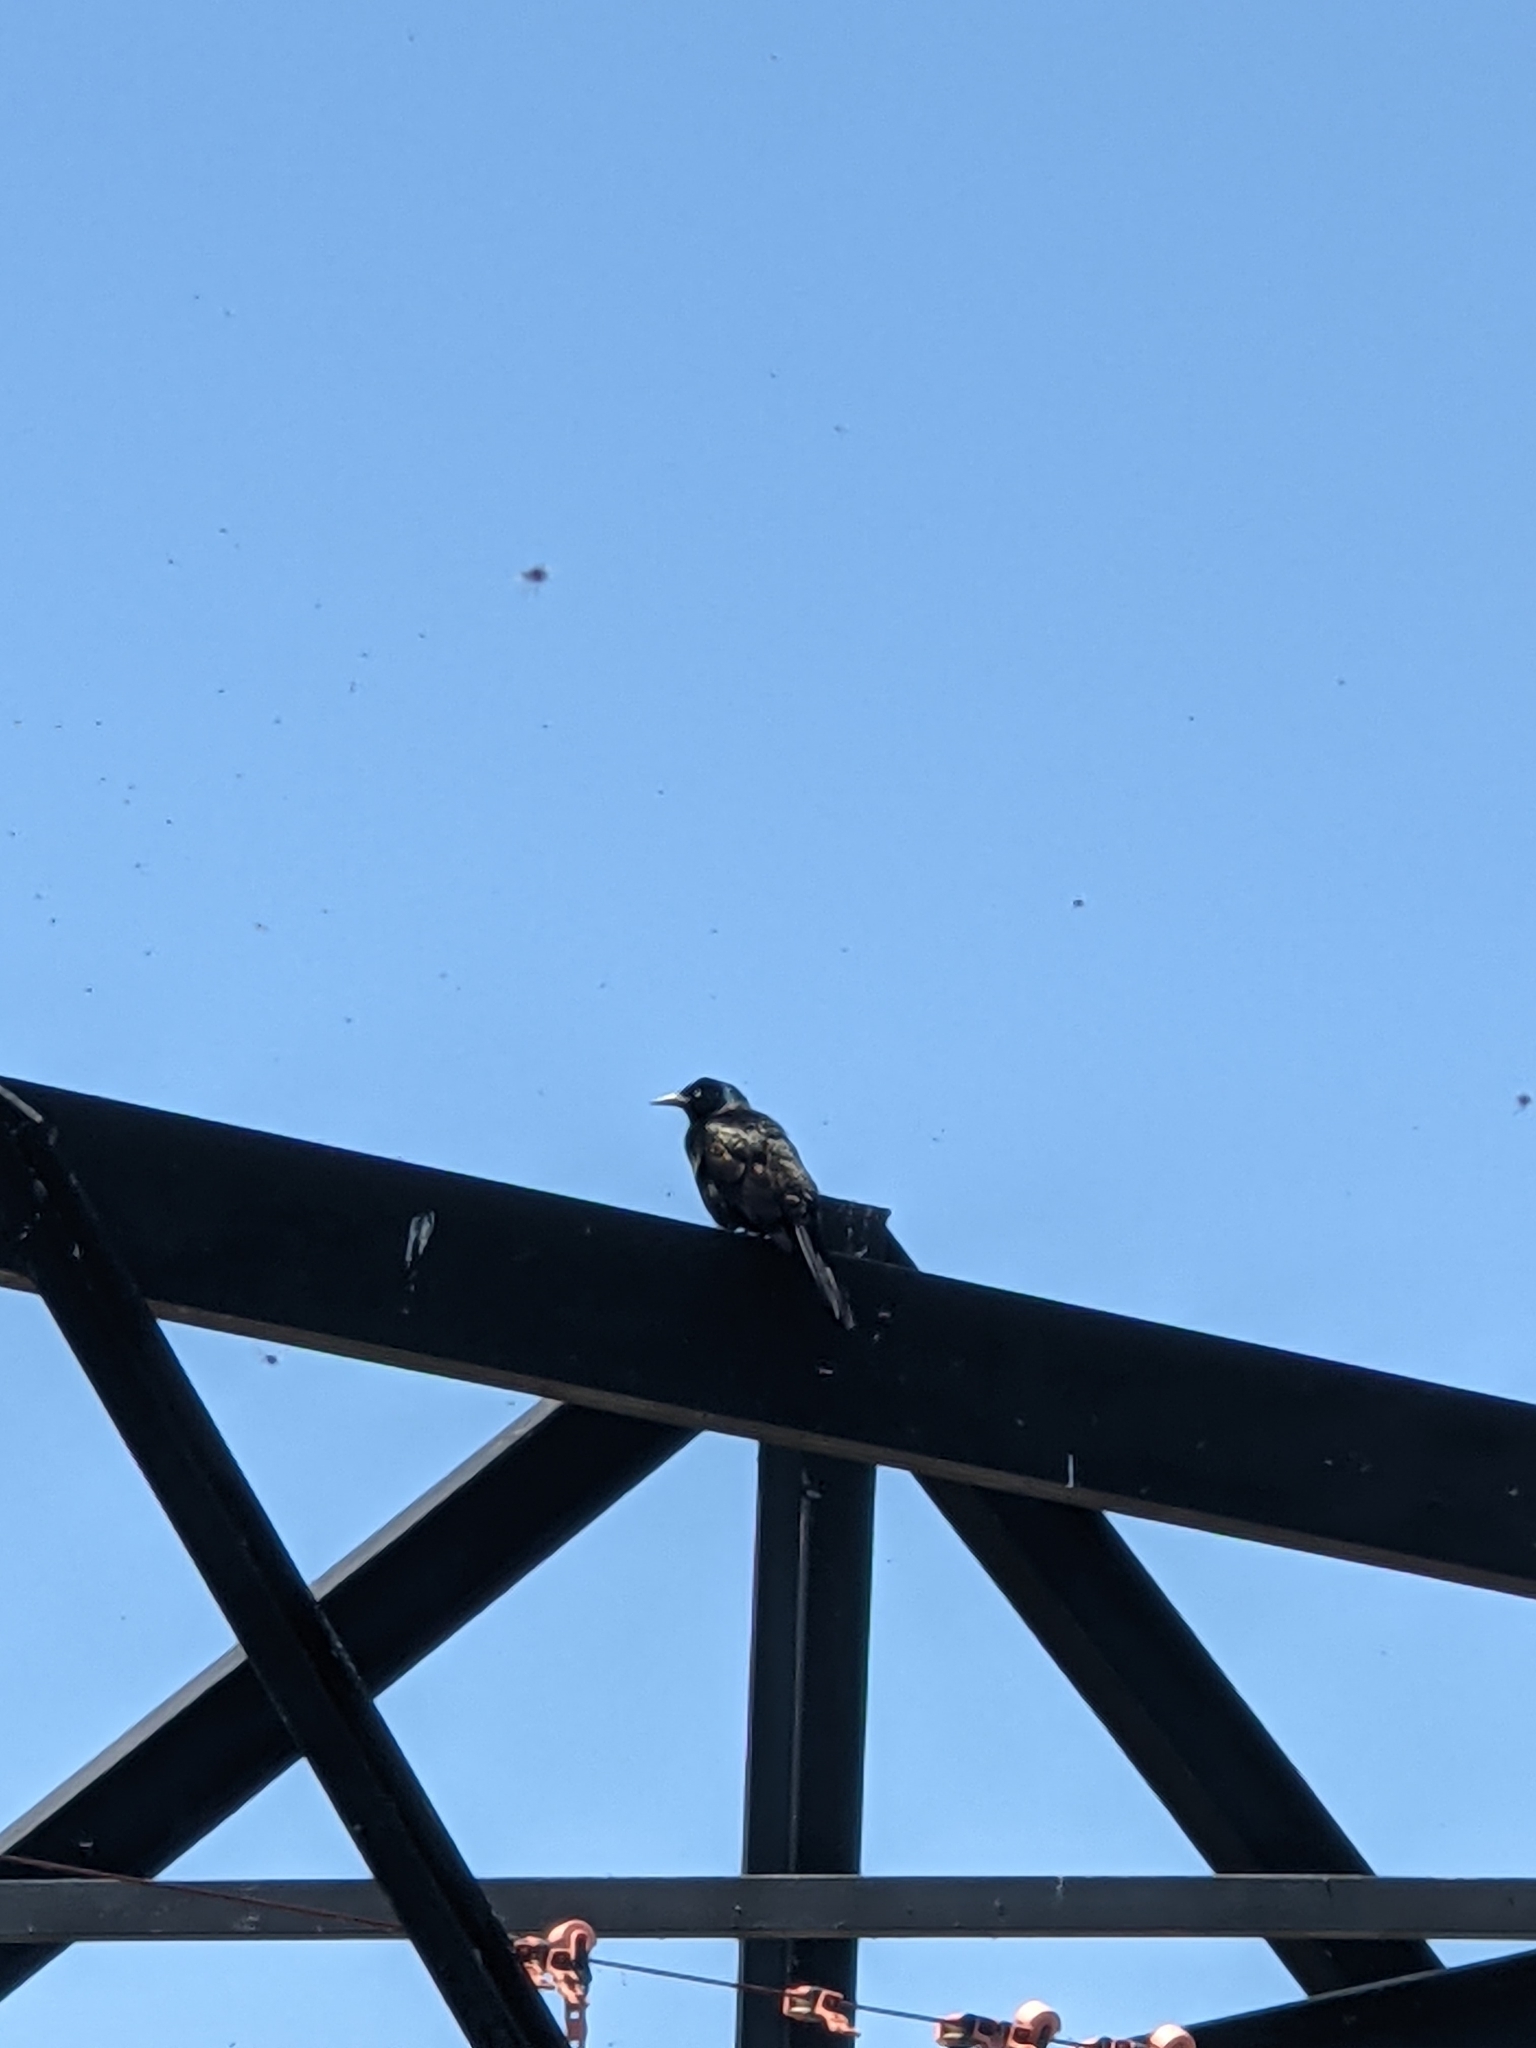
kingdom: Animalia
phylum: Chordata
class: Aves
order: Passeriformes
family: Icteridae
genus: Quiscalus
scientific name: Quiscalus quiscula
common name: Common grackle
